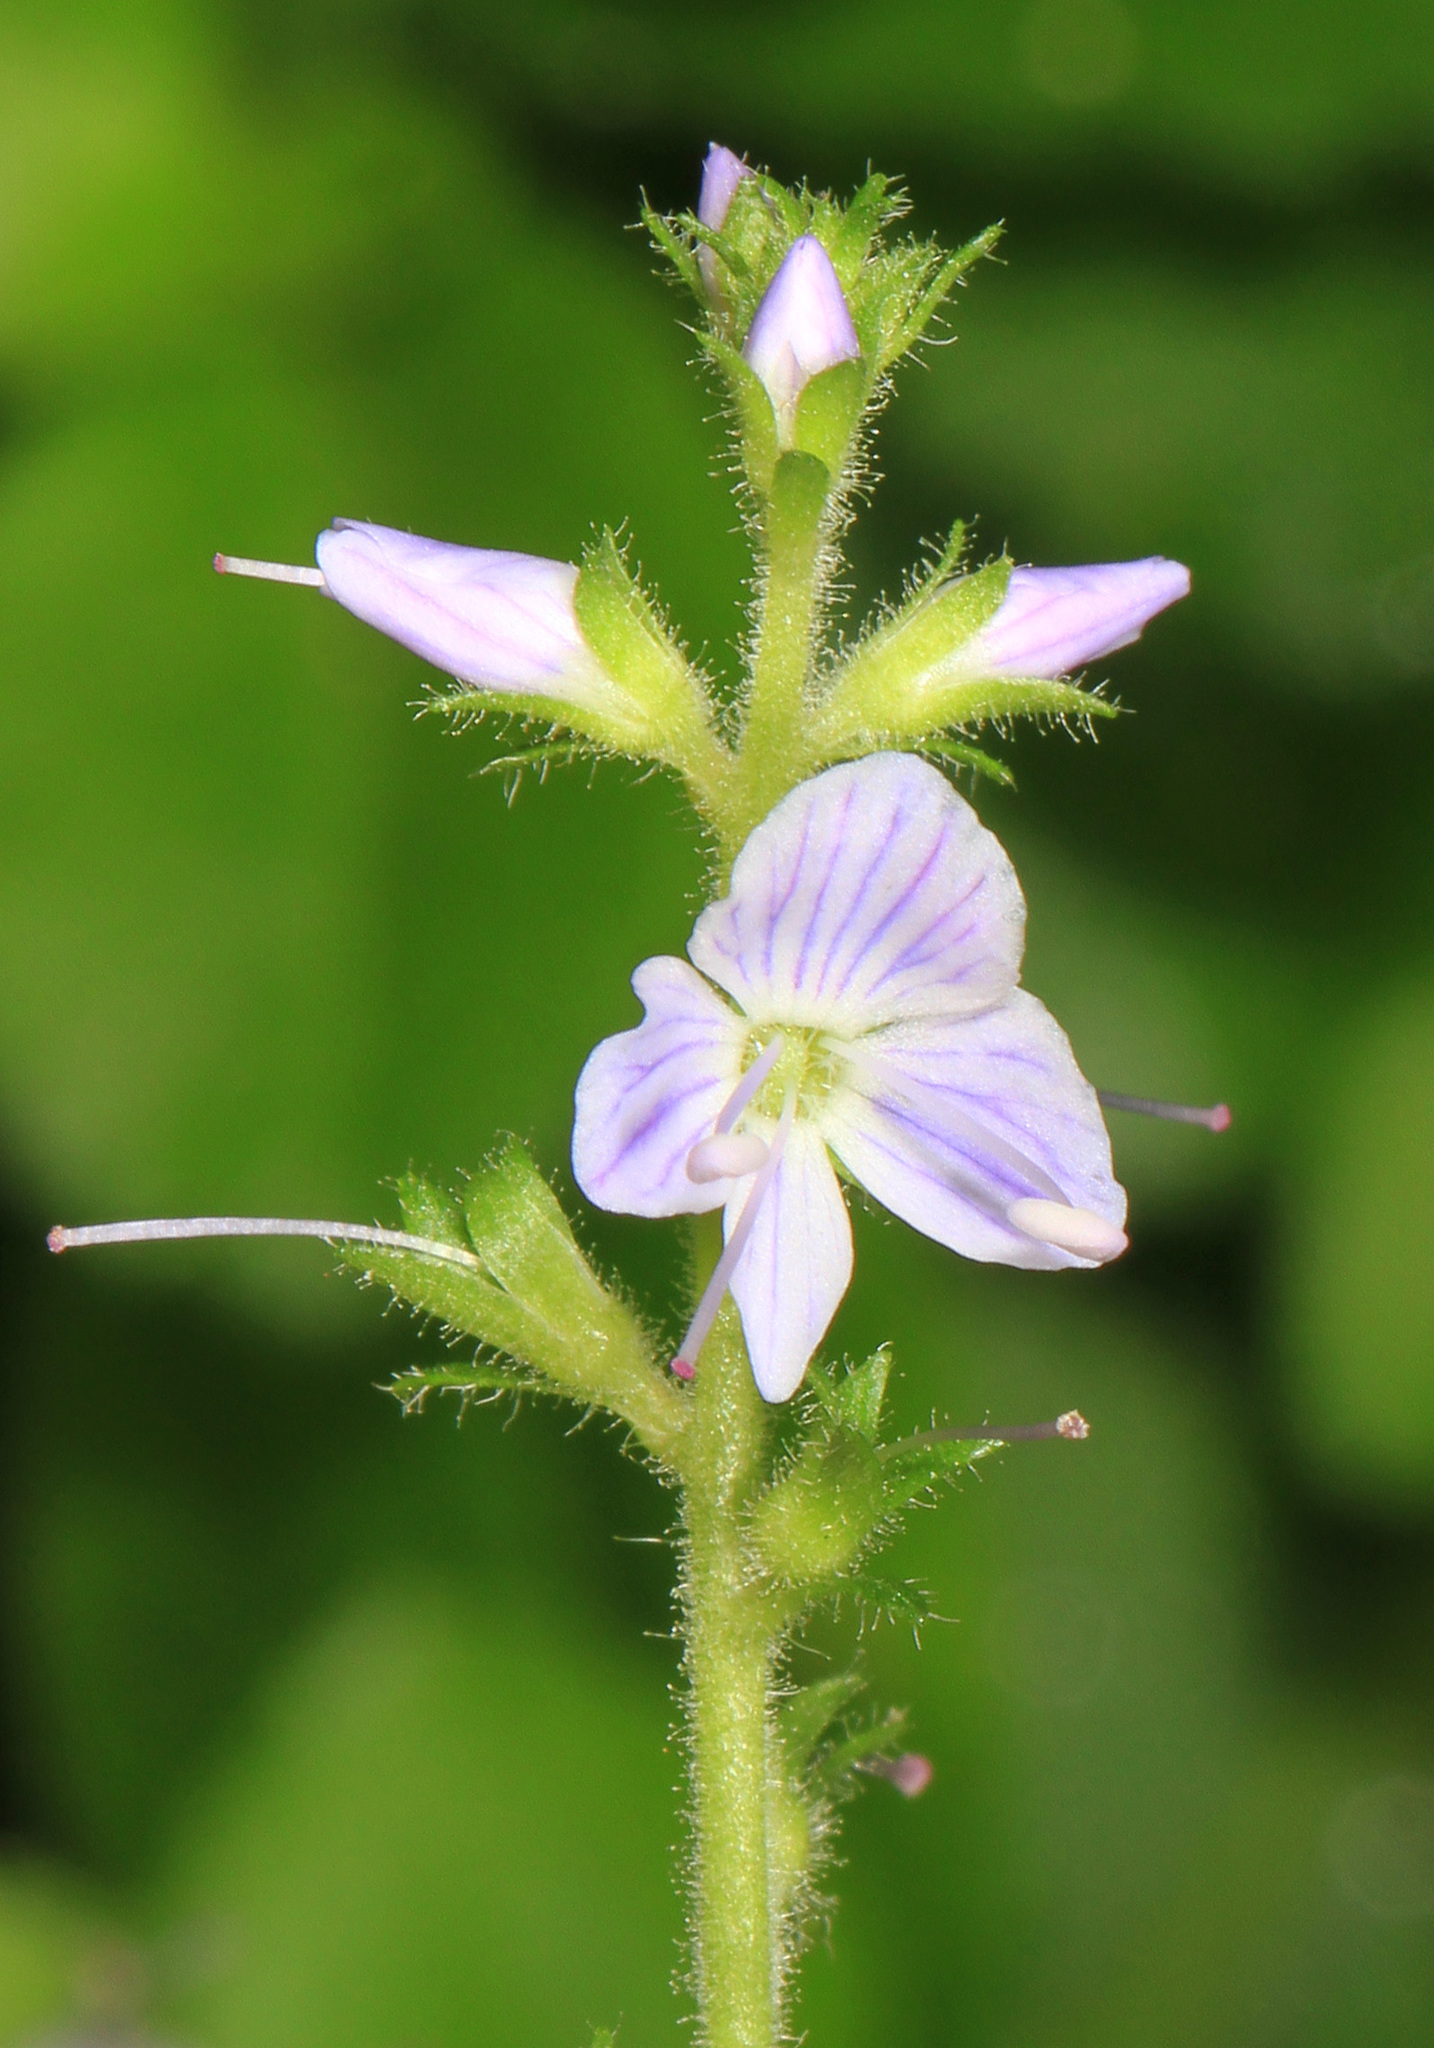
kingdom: Plantae
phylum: Tracheophyta
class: Magnoliopsida
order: Lamiales
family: Plantaginaceae
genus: Veronica
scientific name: Veronica officinalis
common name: Common speedwell
